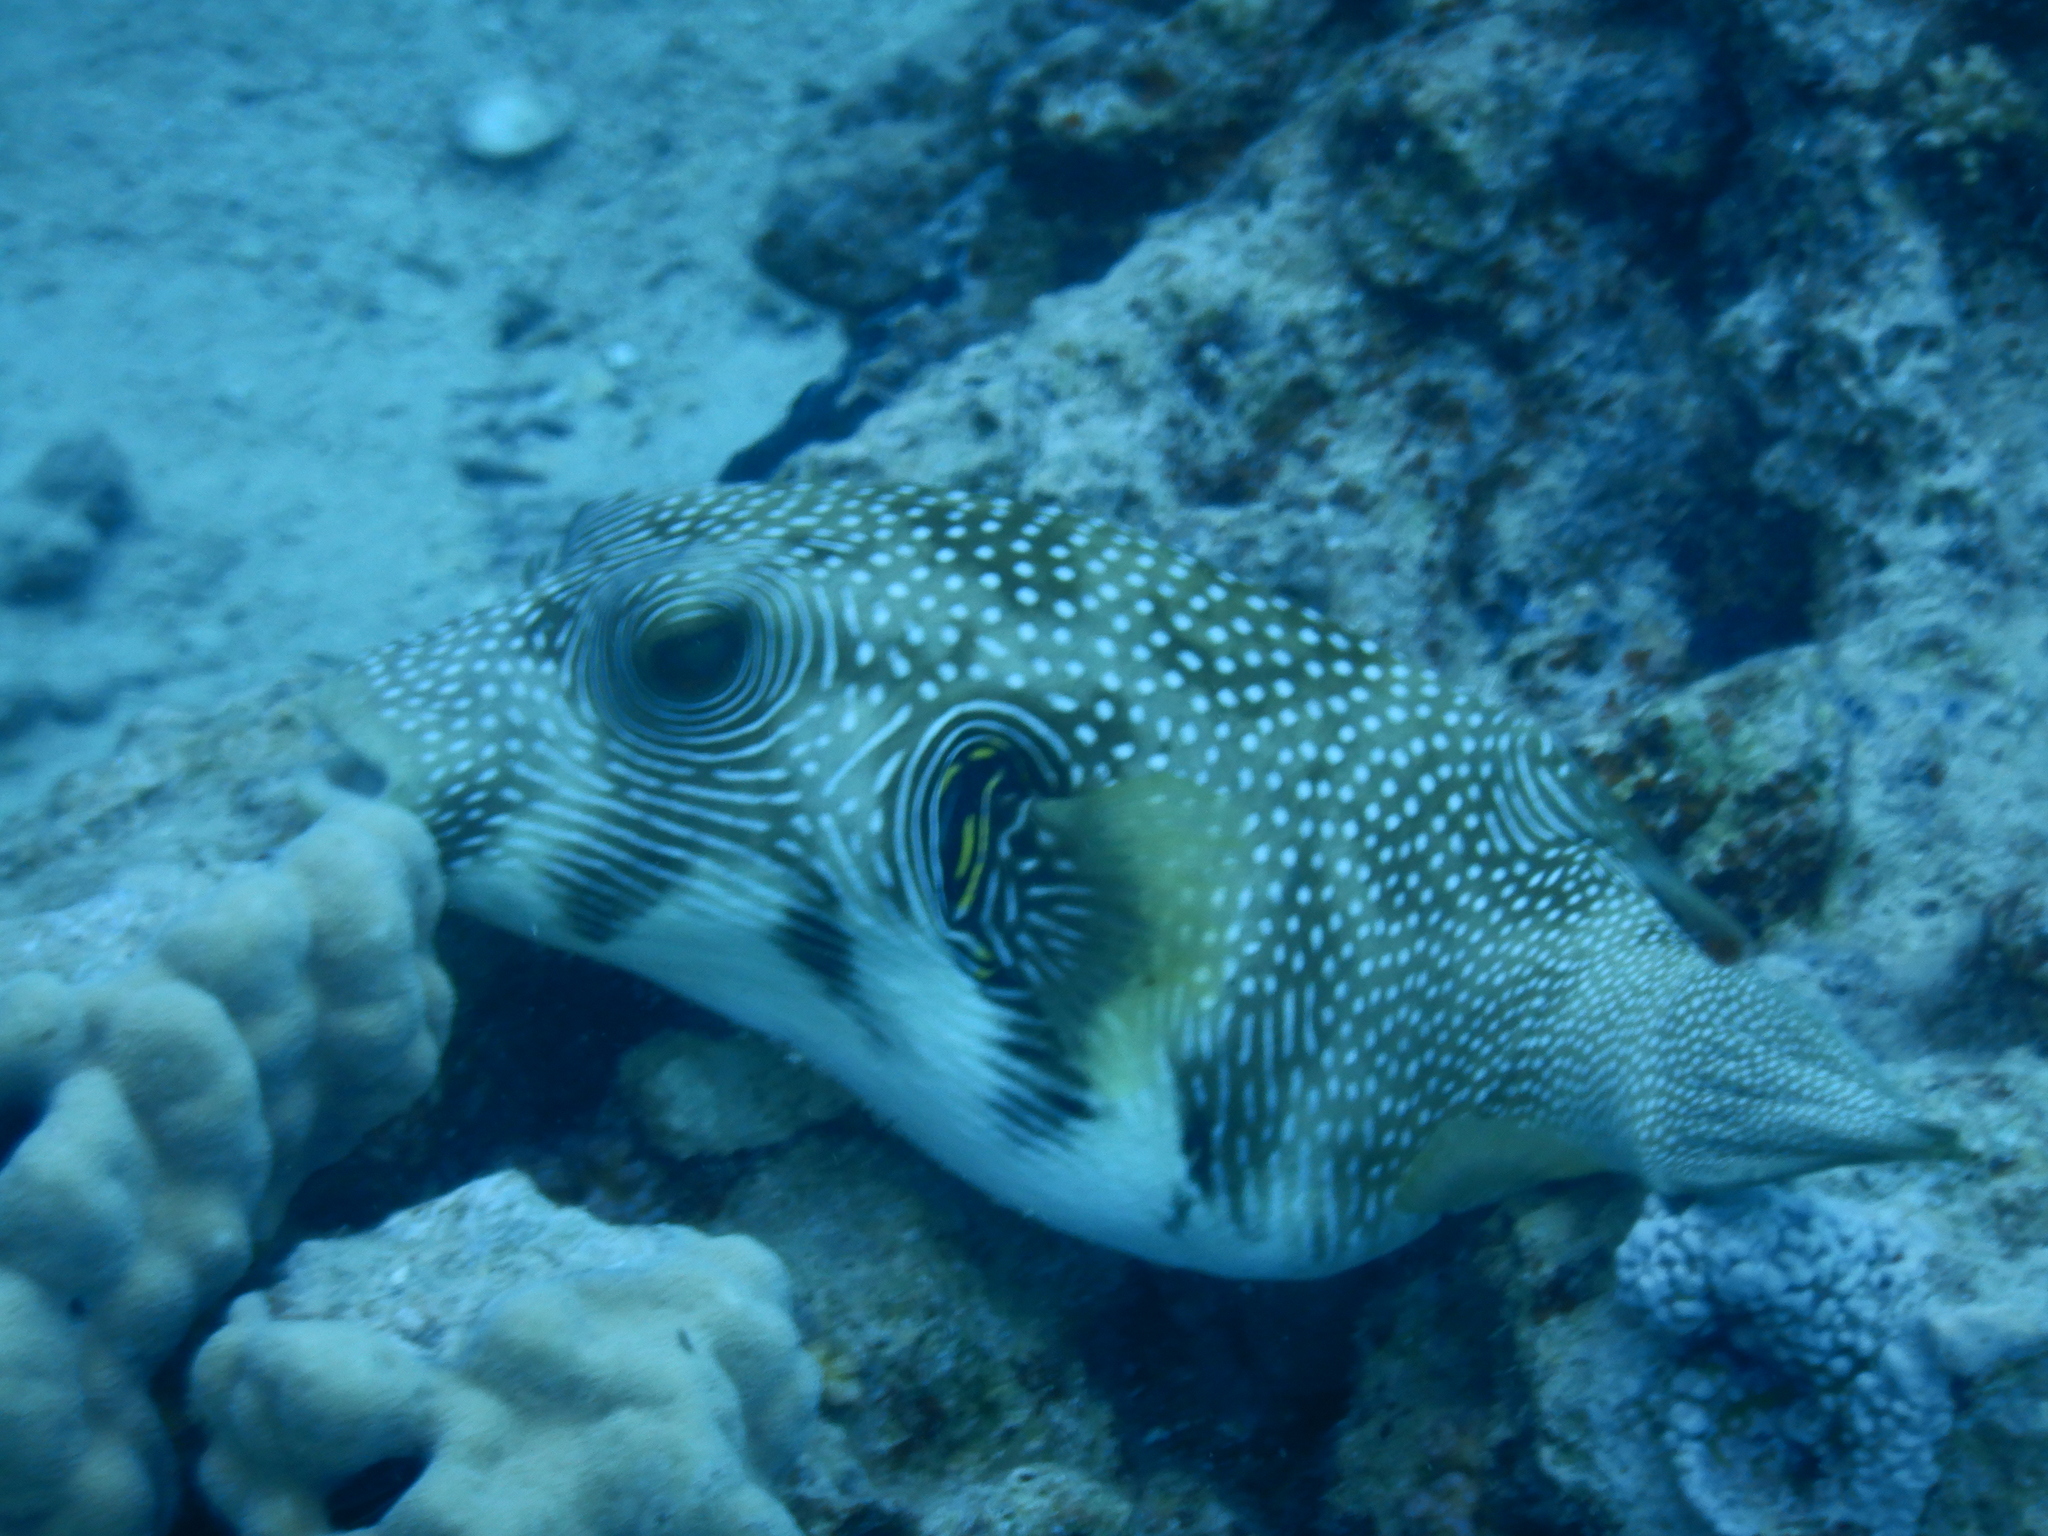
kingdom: Animalia
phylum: Chordata
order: Tetraodontiformes
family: Tetraodontidae
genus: Arothron
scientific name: Arothron hispidus
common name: Stripebelly puffer
